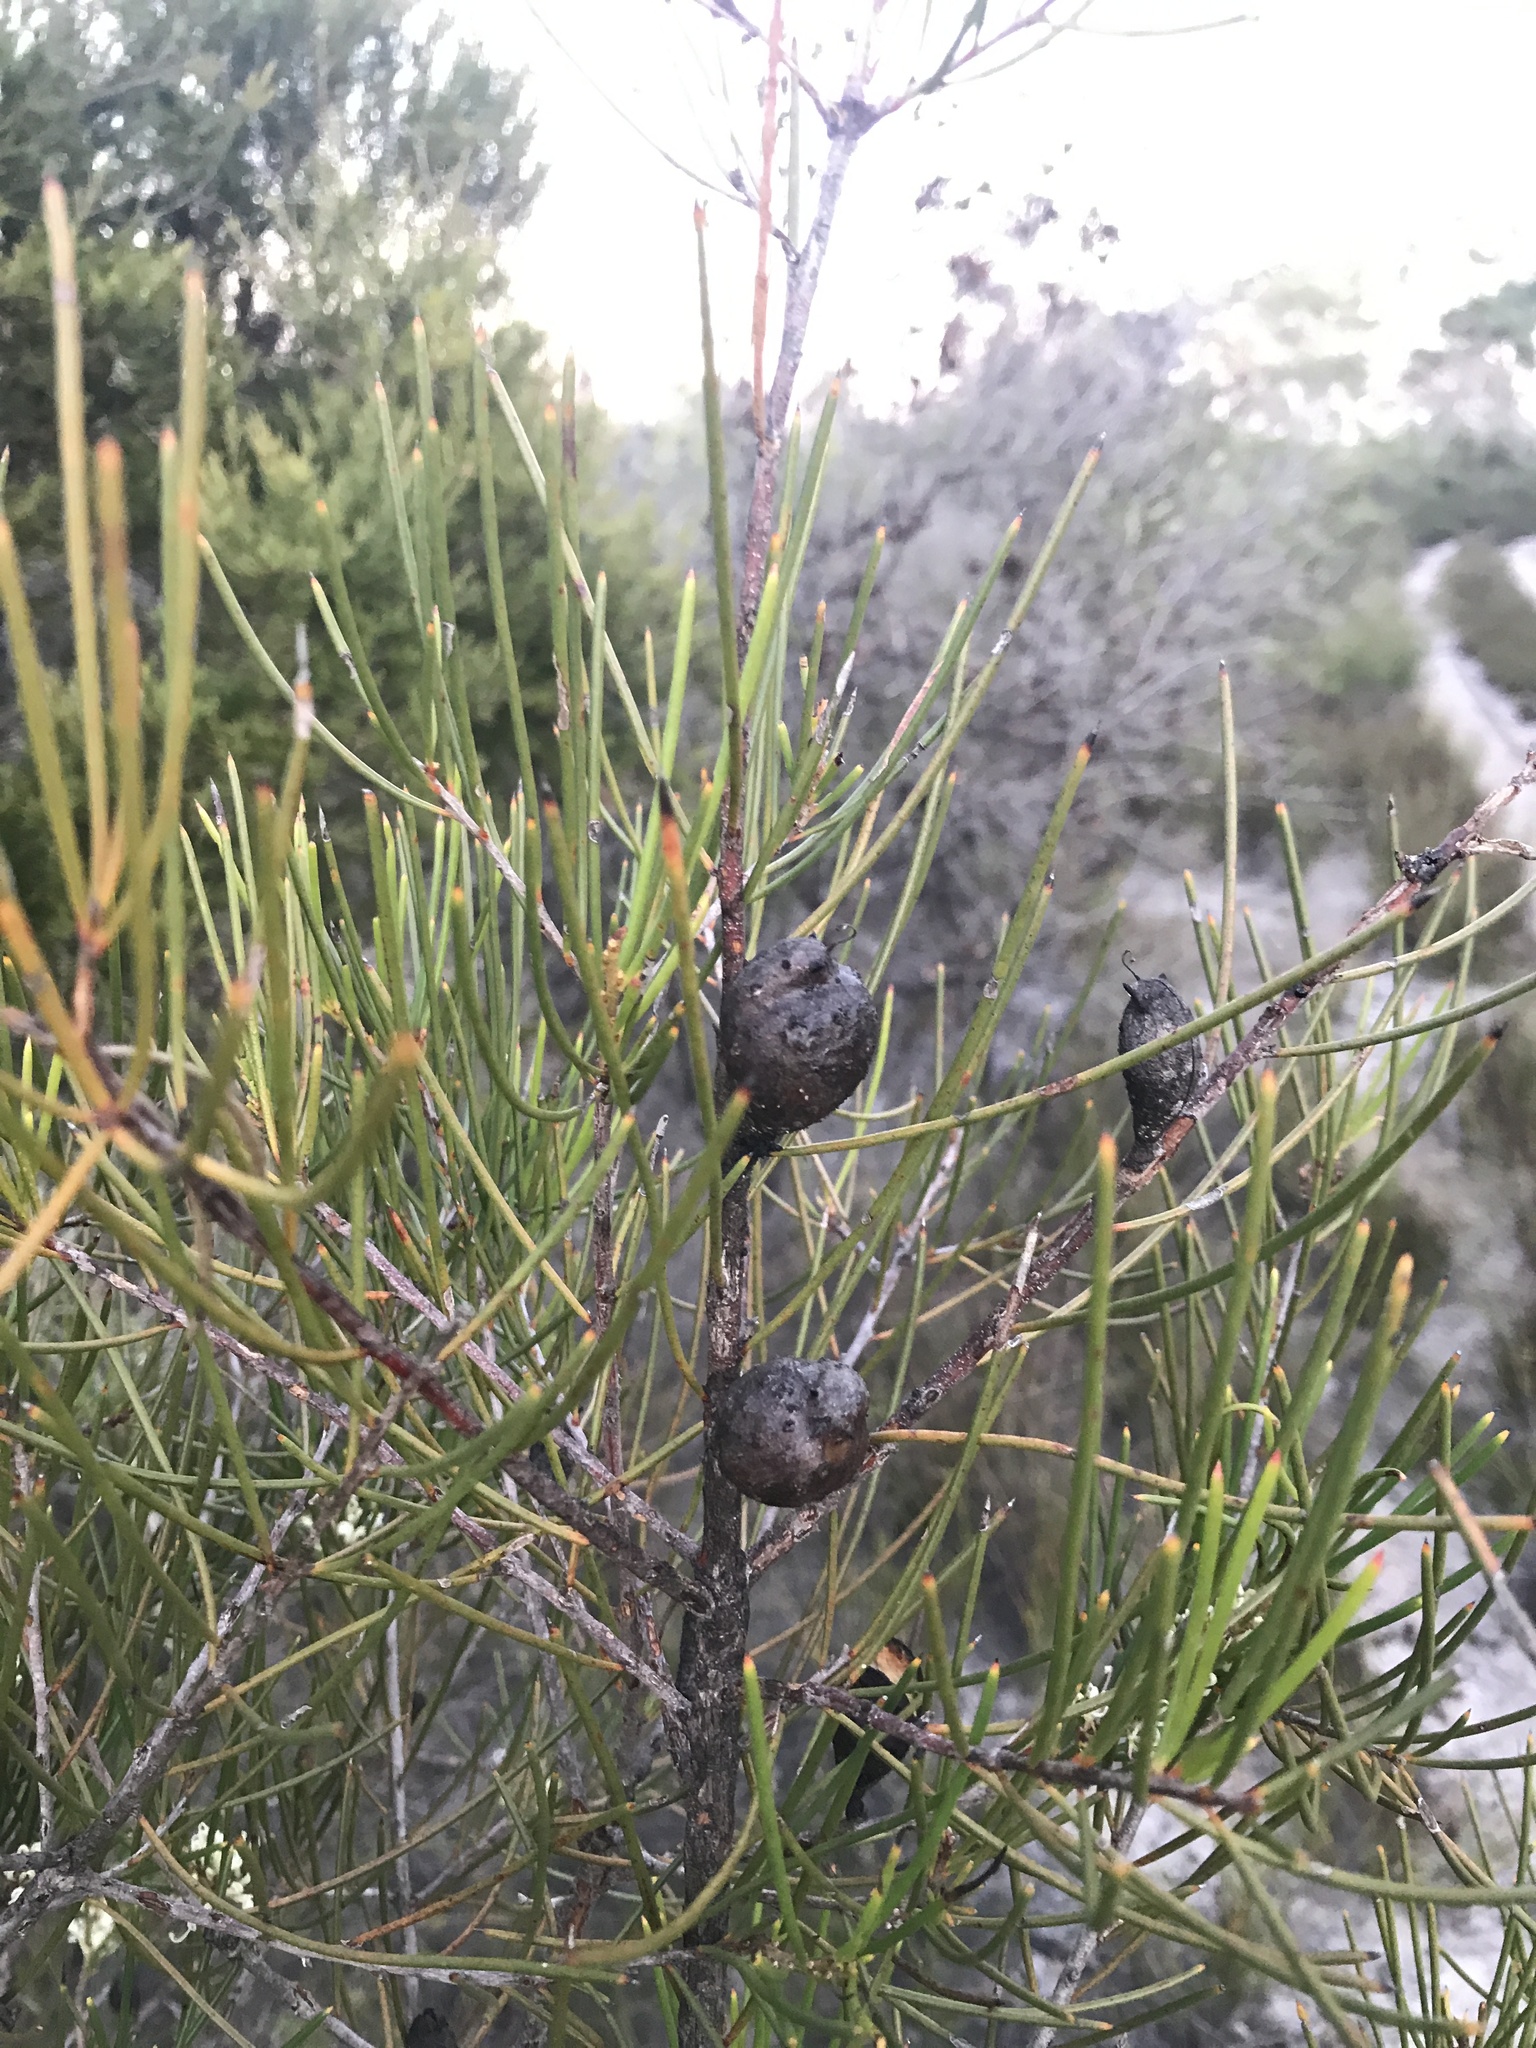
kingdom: Plantae
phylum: Tracheophyta
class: Magnoliopsida
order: Proteales
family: Proteaceae
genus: Hakea
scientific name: Hakea actites
